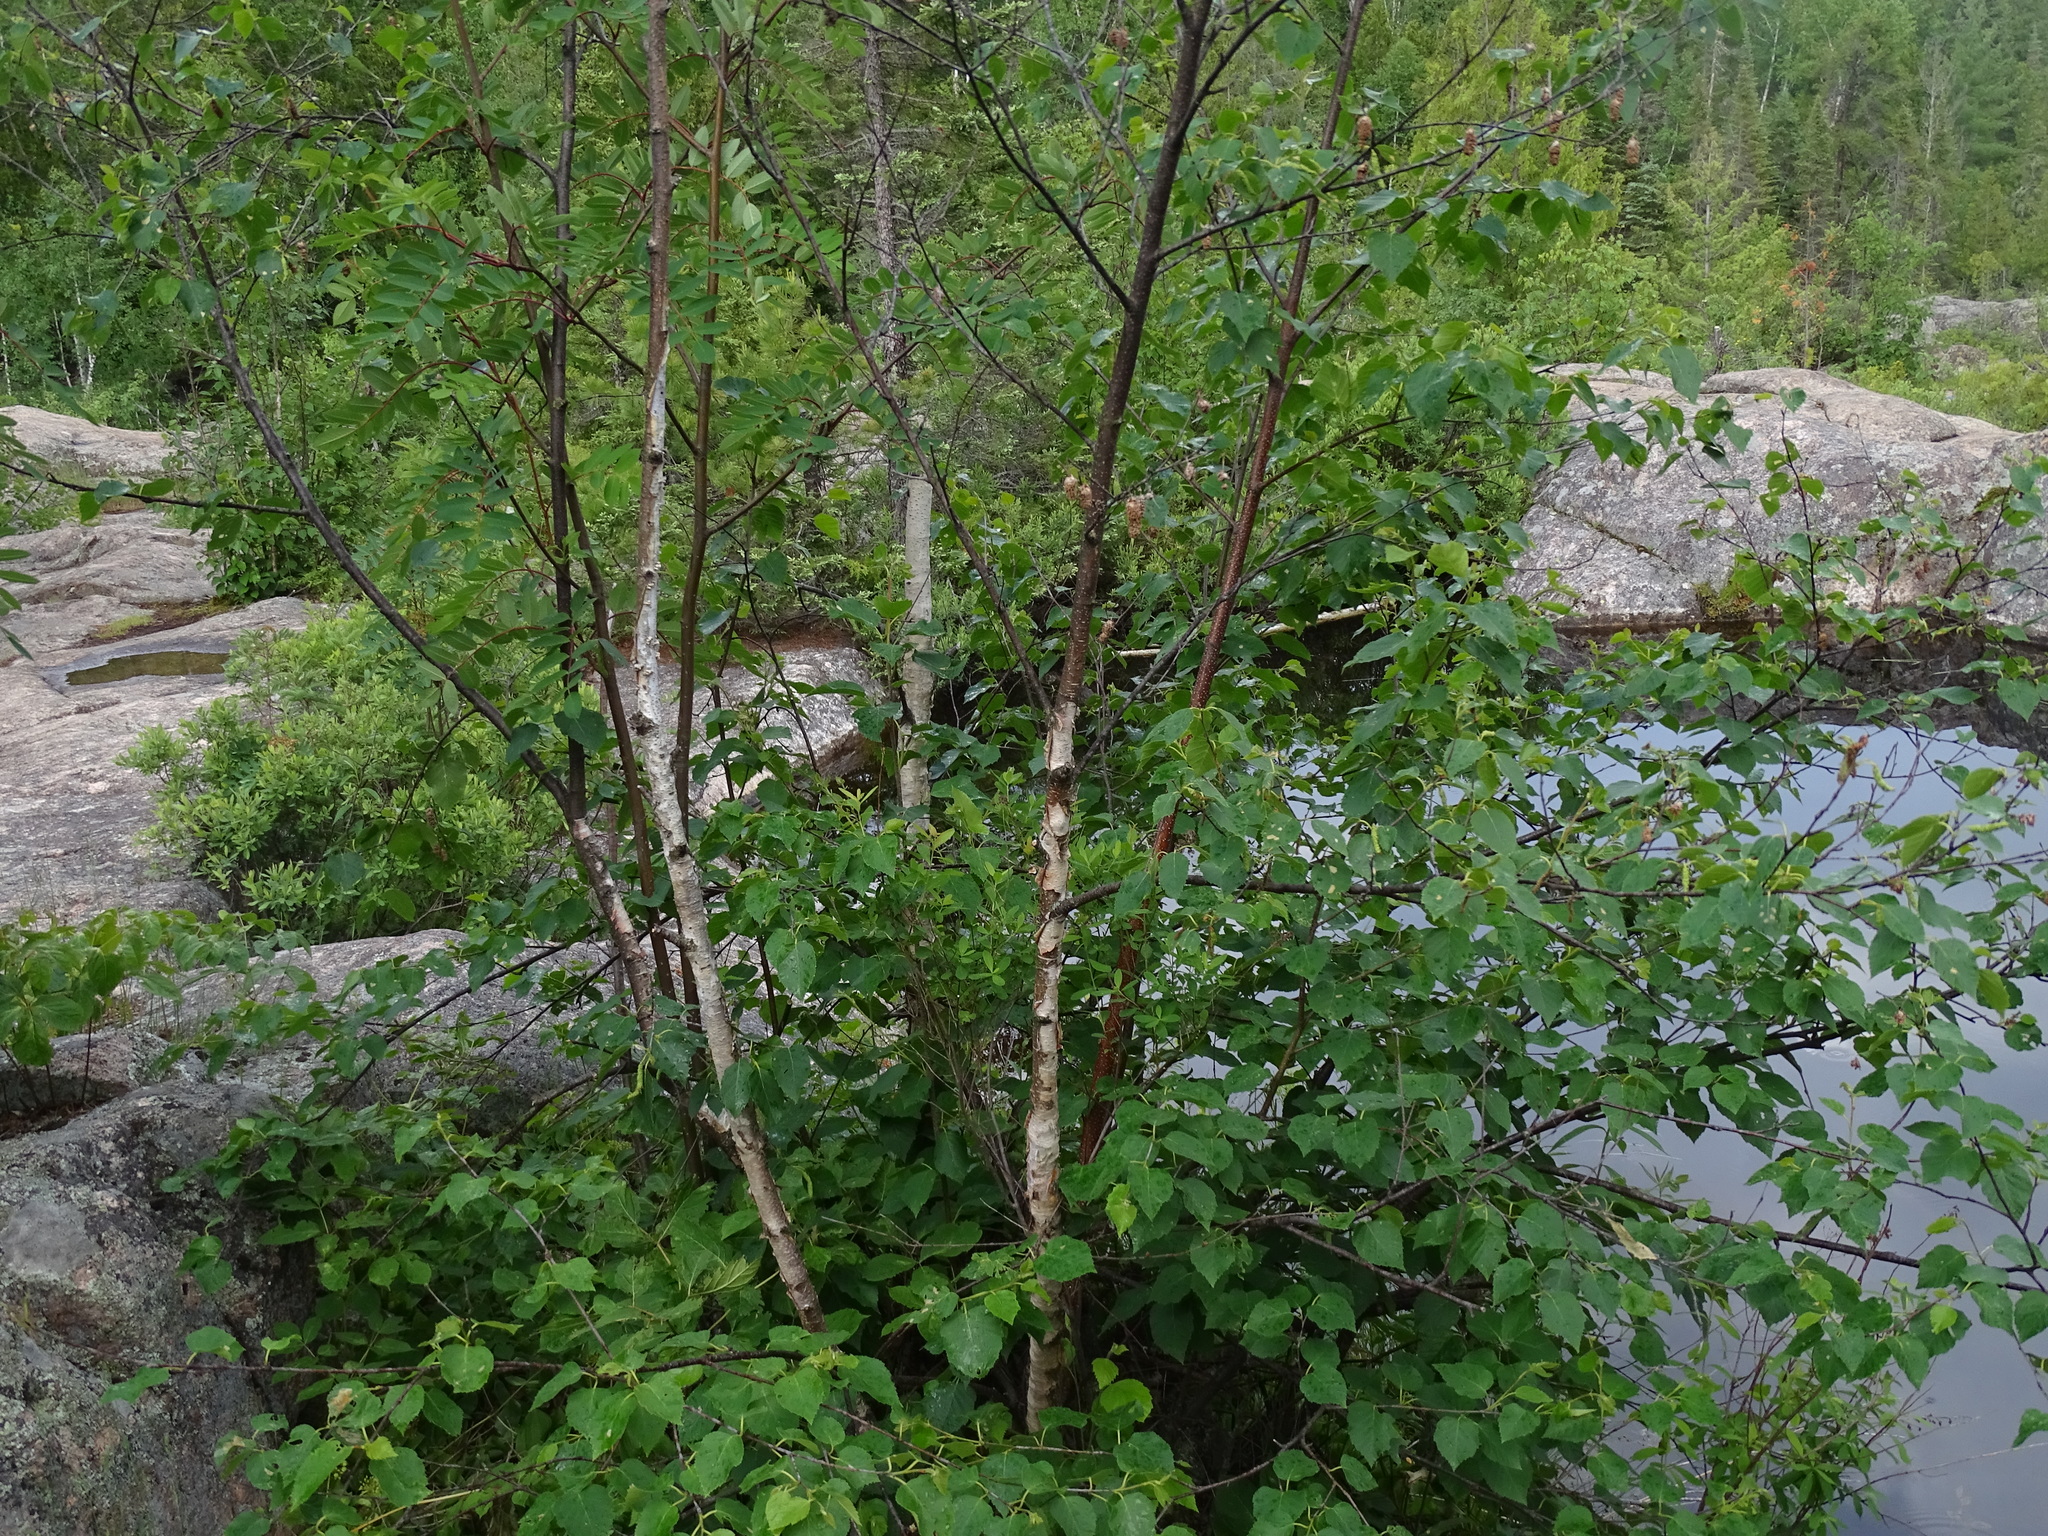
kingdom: Plantae
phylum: Tracheophyta
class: Magnoliopsida
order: Fagales
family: Betulaceae
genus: Betula
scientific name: Betula papyrifera
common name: Paper birch
